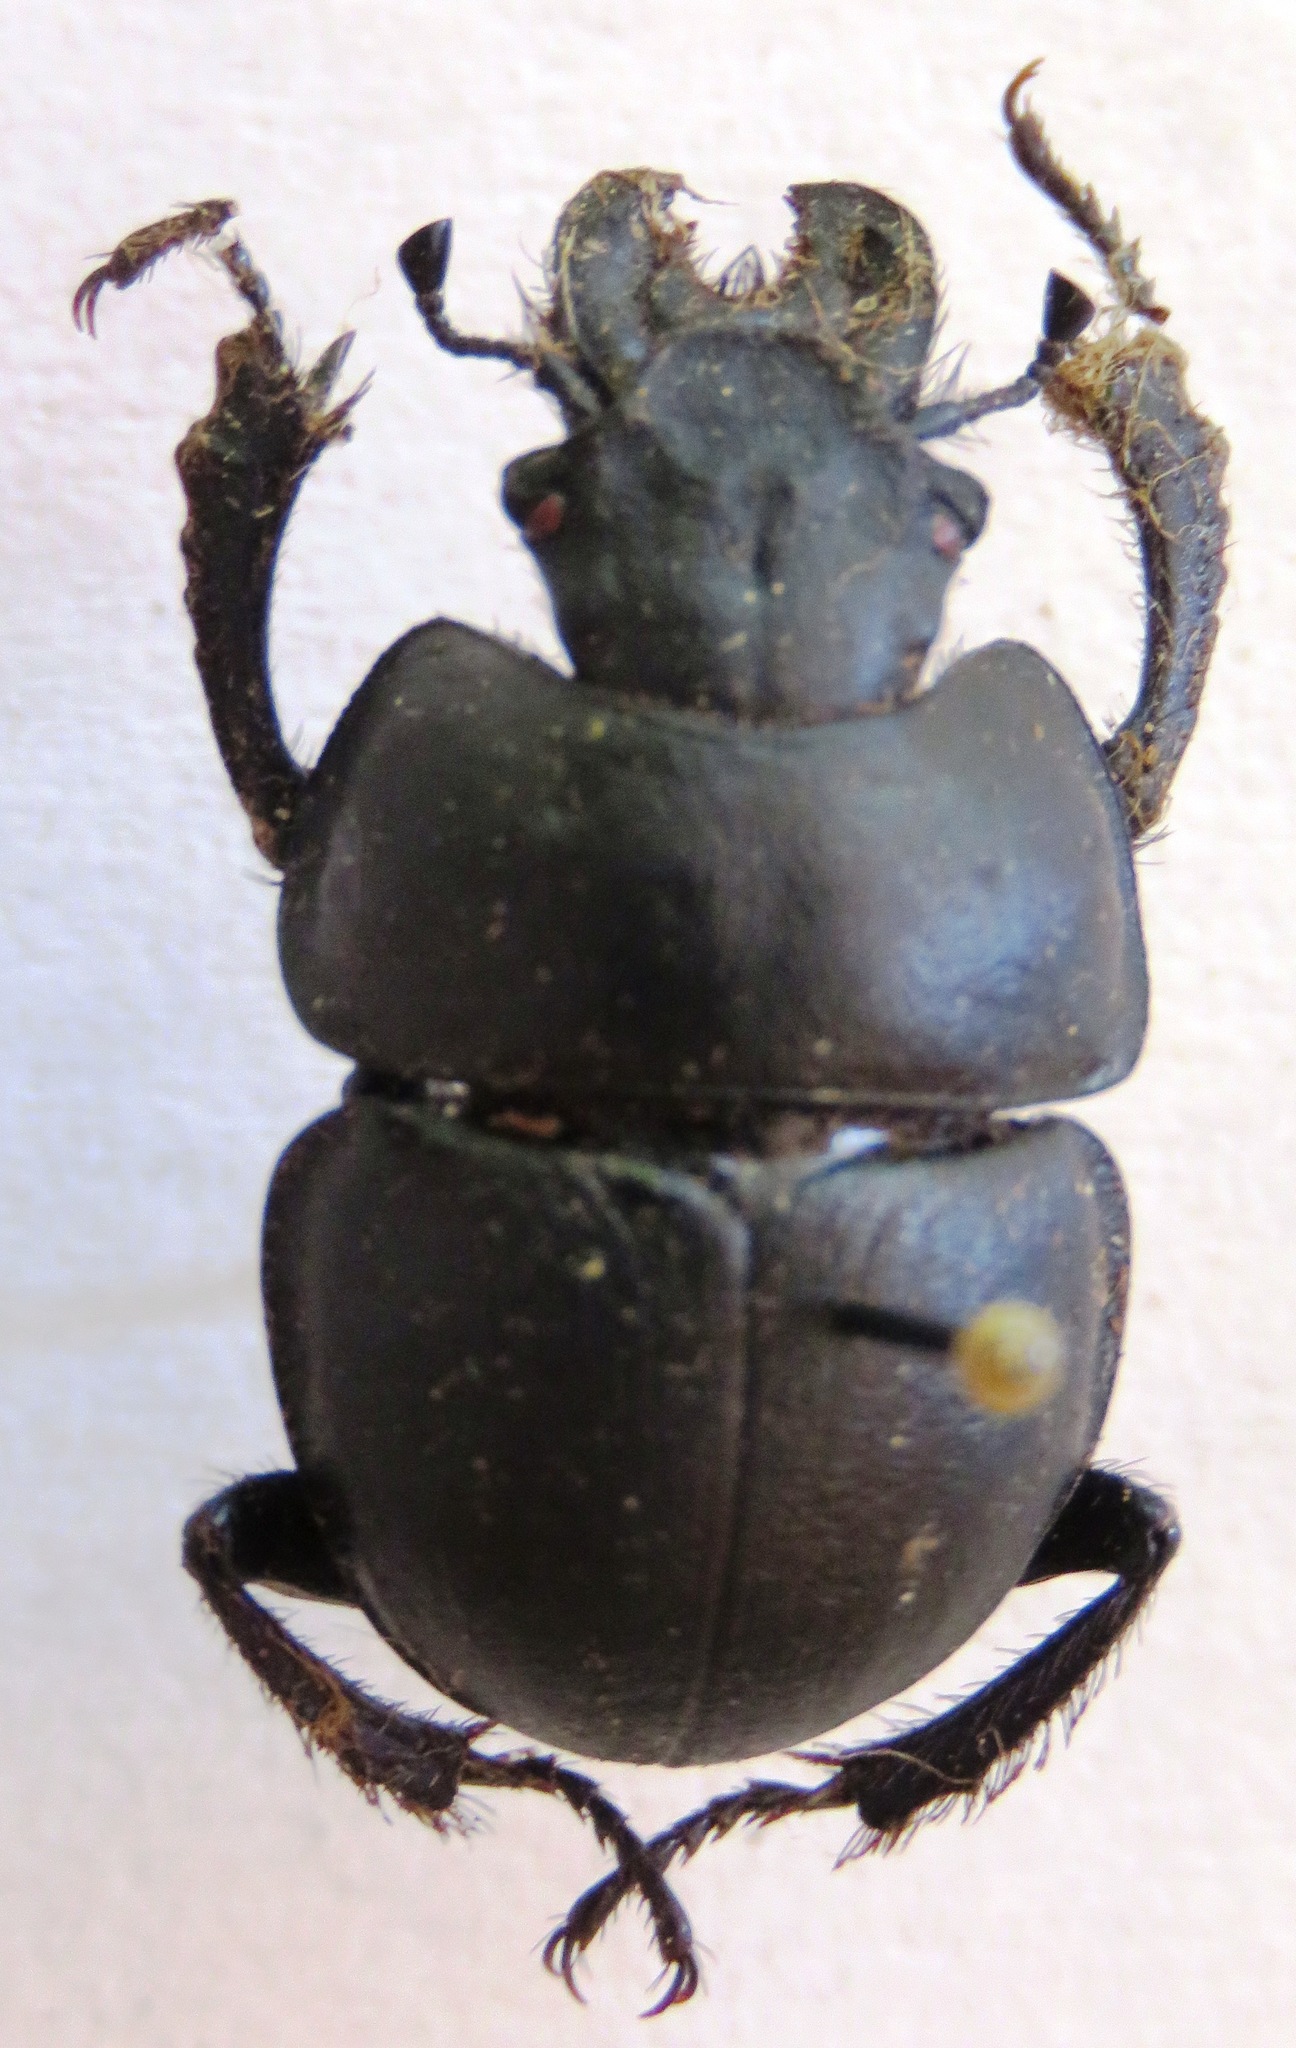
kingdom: Animalia
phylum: Arthropoda
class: Insecta
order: Coleoptera
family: Geotrupidae
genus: Lethrus
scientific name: Lethrus apterus
